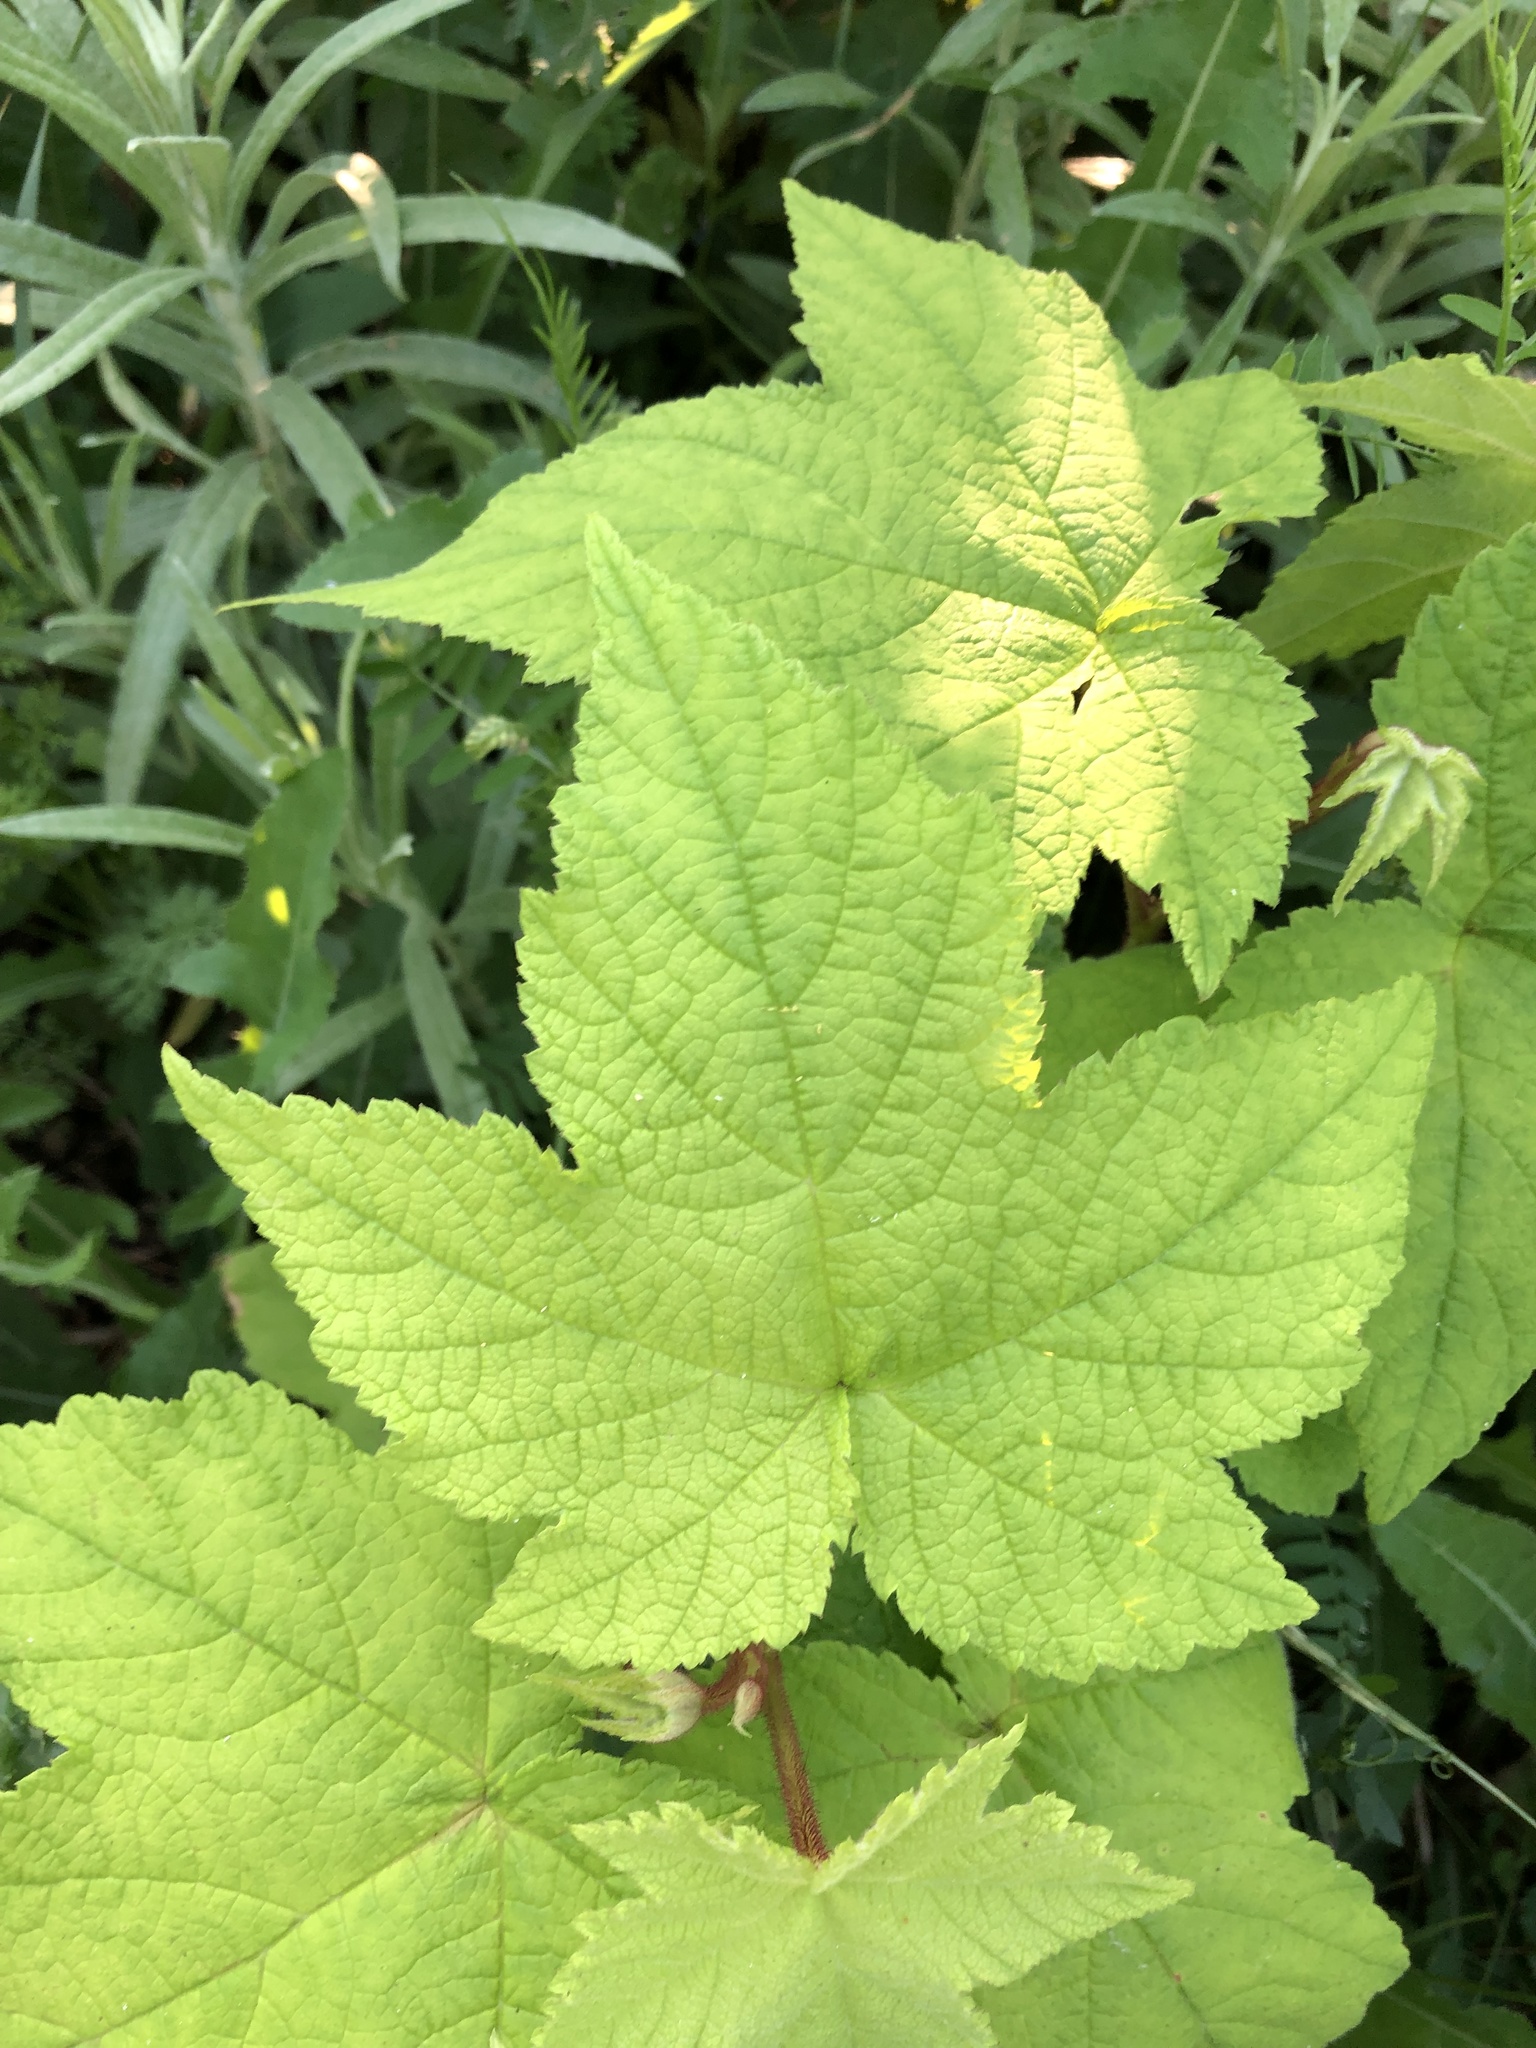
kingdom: Plantae
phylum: Tracheophyta
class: Magnoliopsida
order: Rosales
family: Rosaceae
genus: Rubus
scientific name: Rubus odoratus
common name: Purple-flowered raspberry
